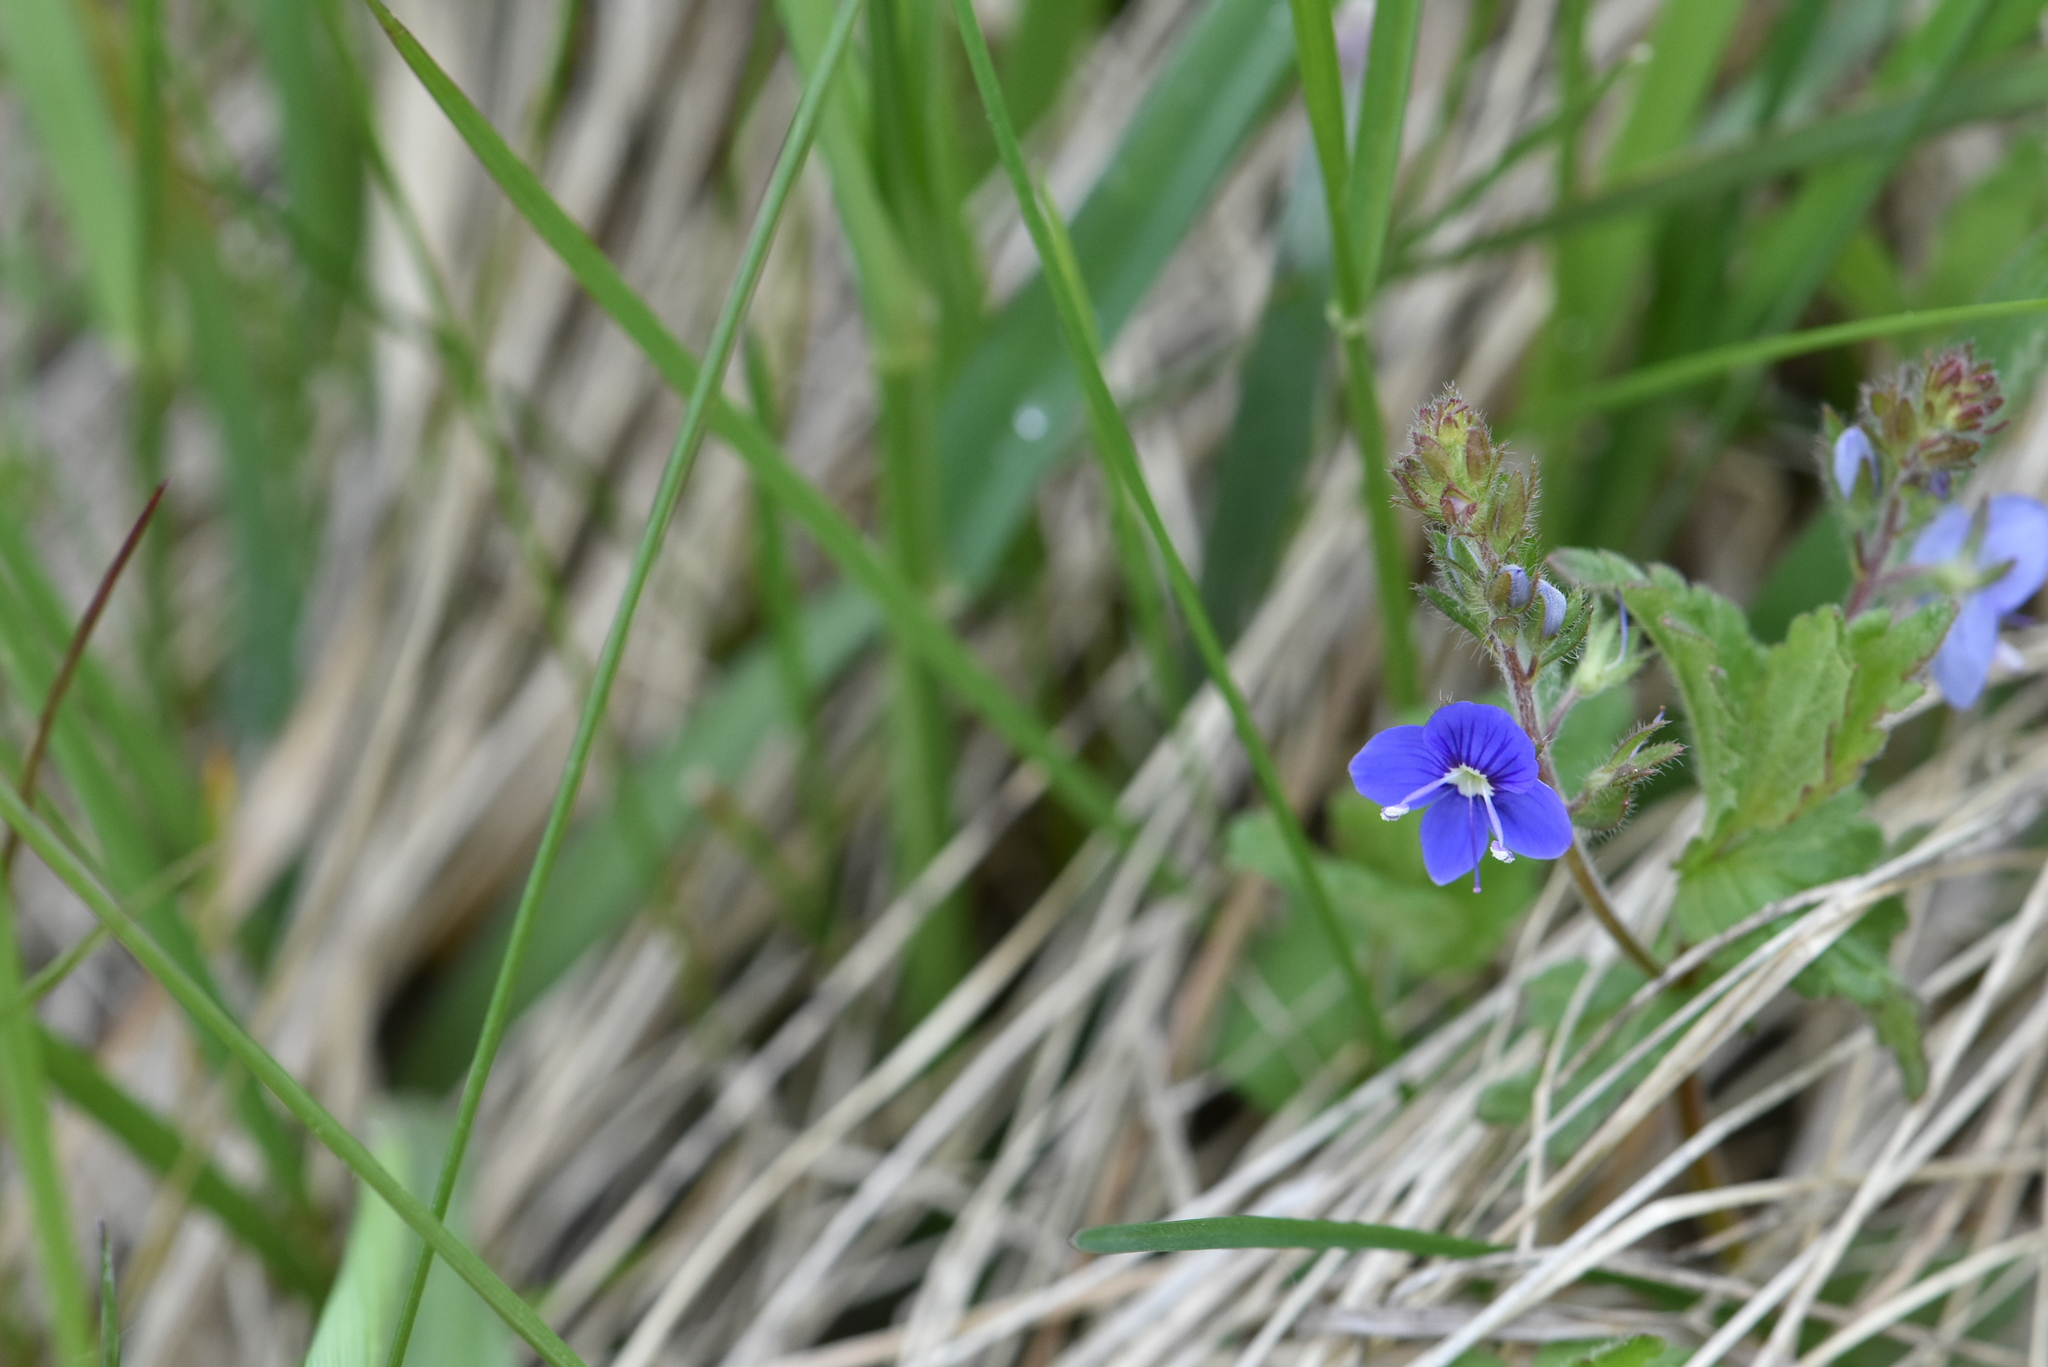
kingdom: Plantae
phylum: Tracheophyta
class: Magnoliopsida
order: Lamiales
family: Plantaginaceae
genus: Veronica
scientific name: Veronica chamaedrys
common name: Germander speedwell
